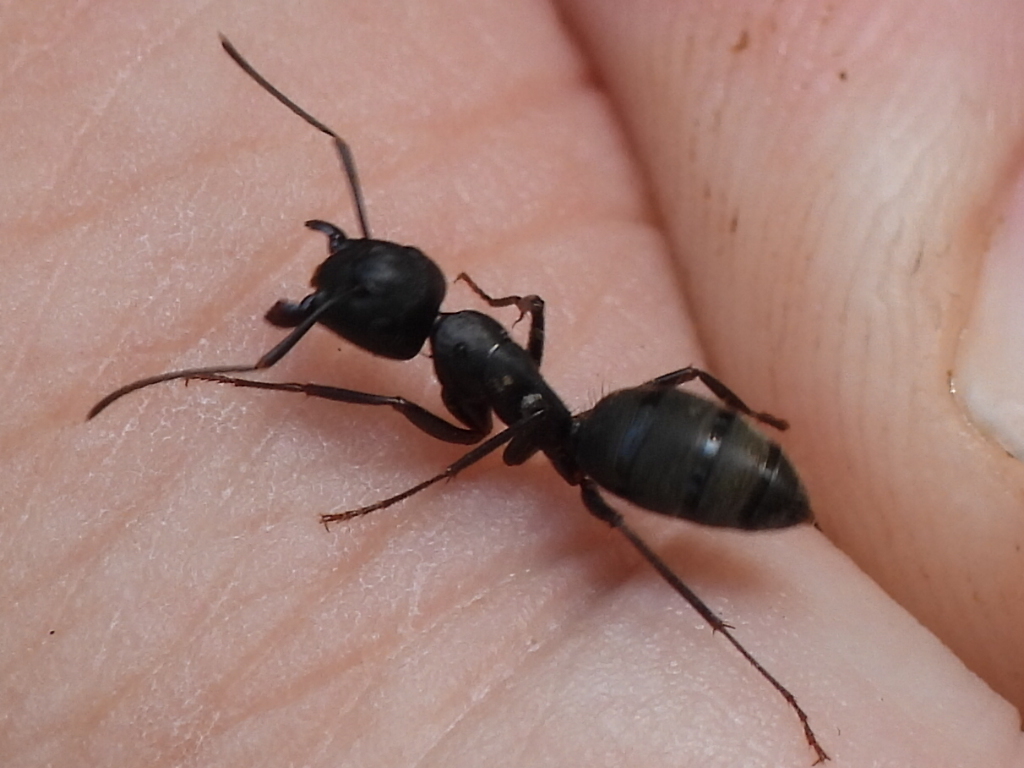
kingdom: Animalia
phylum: Arthropoda
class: Insecta
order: Hymenoptera
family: Formicidae
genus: Camponotus
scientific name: Camponotus pennsylvanicus
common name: Black carpenter ant
